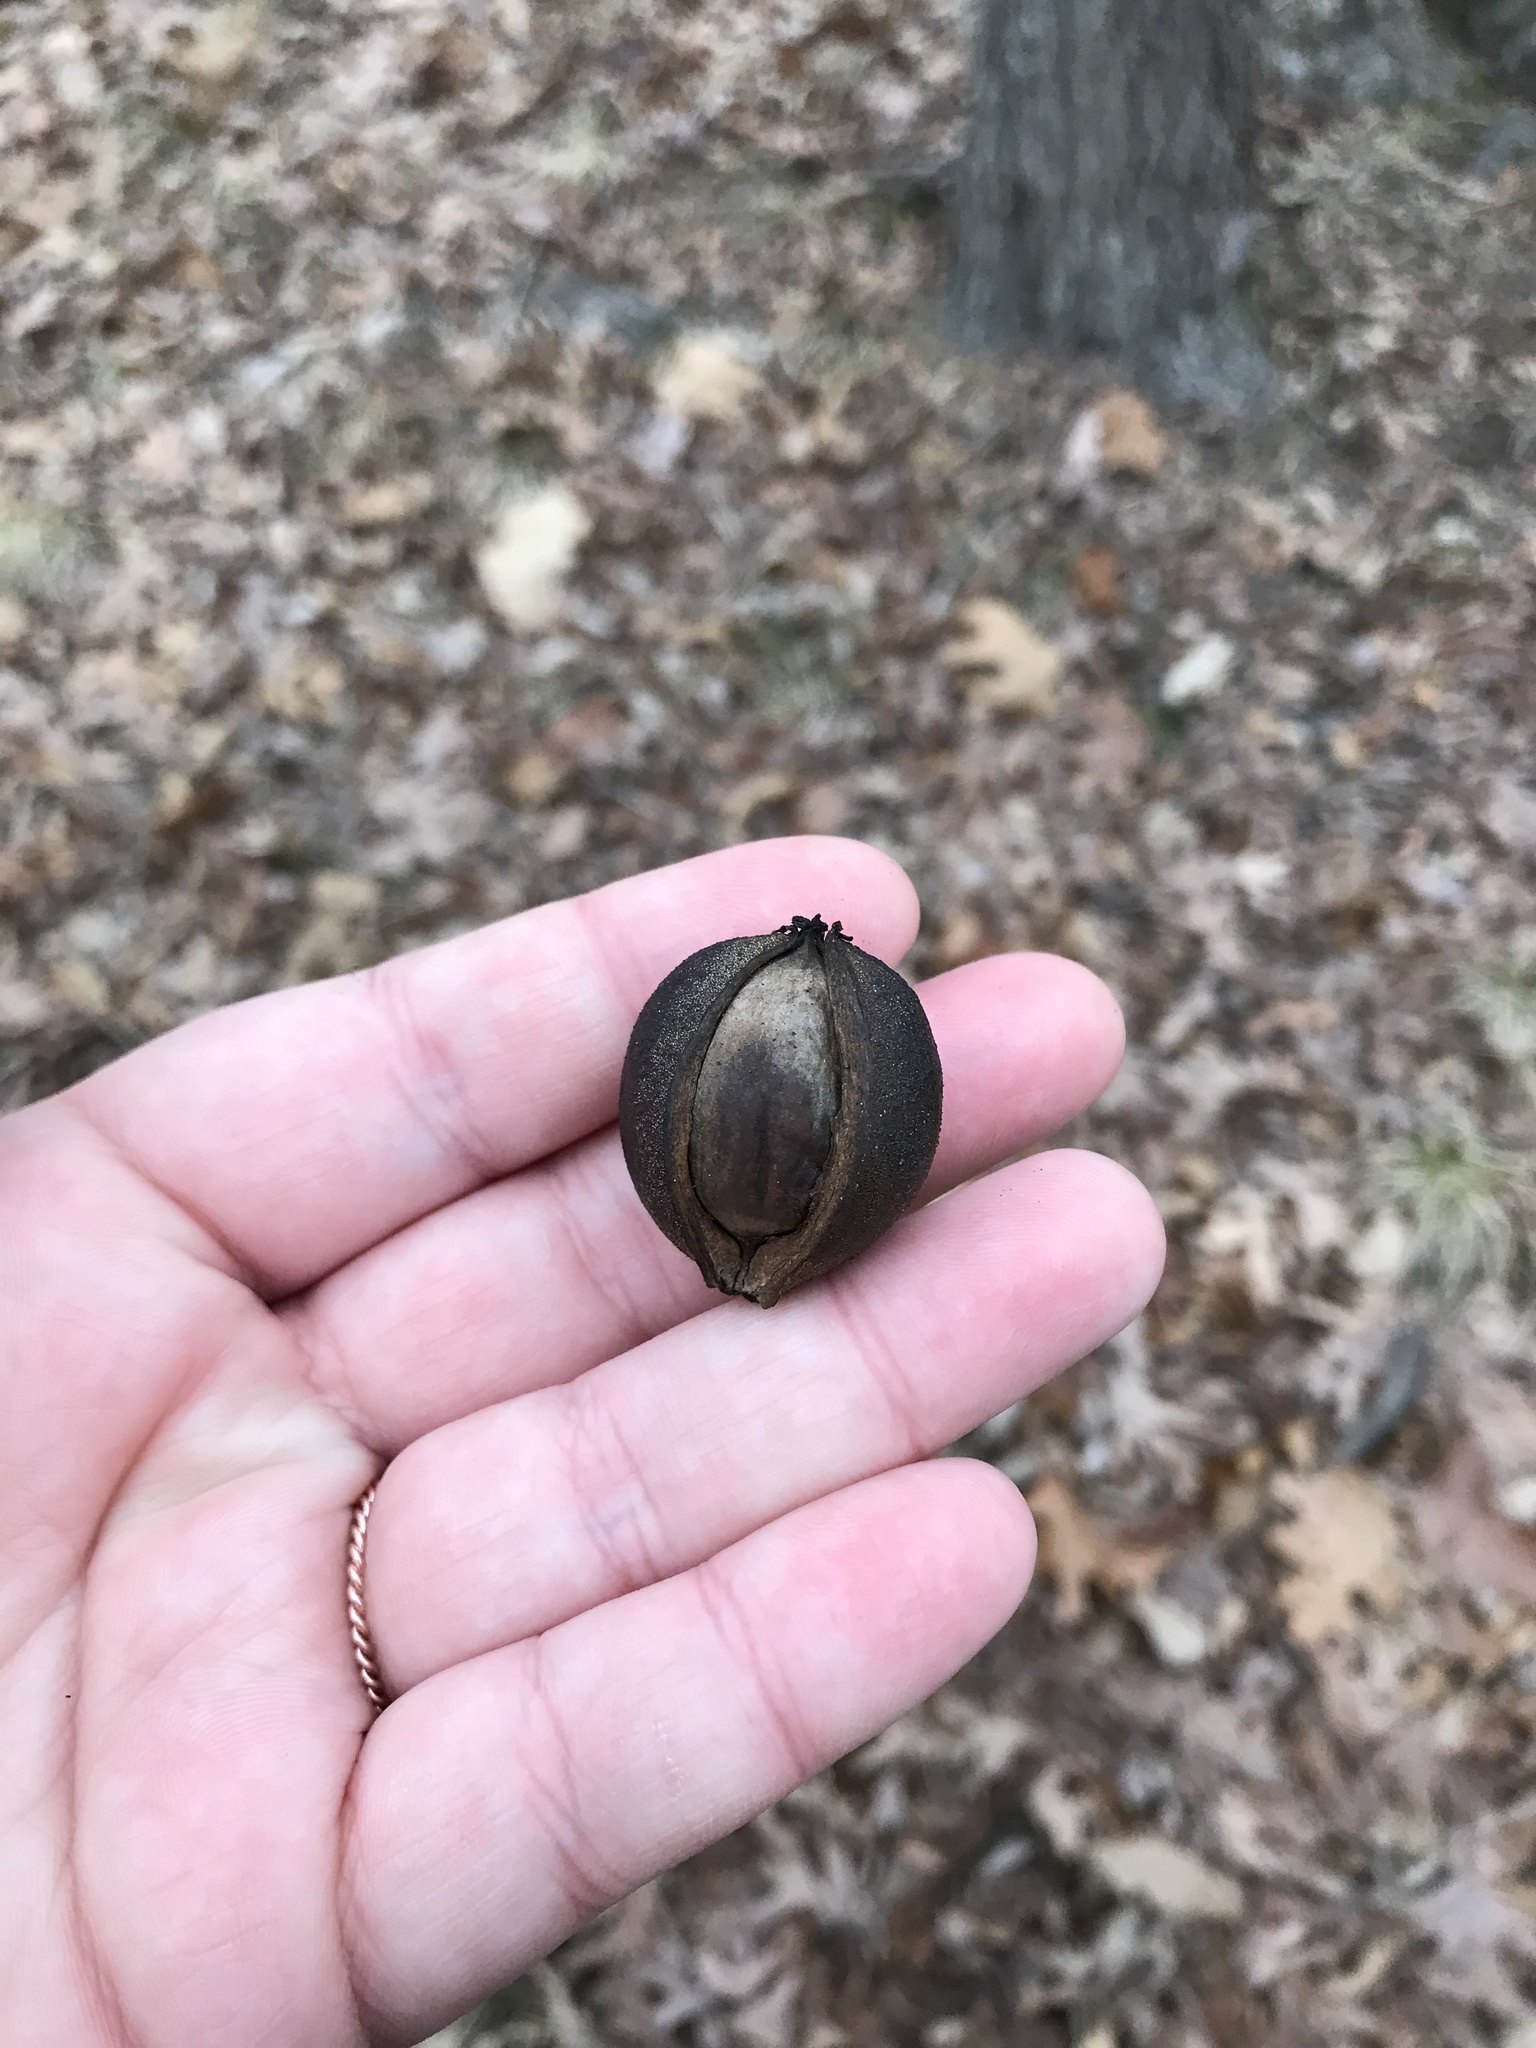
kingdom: Plantae
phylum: Tracheophyta
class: Magnoliopsida
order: Fagales
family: Juglandaceae
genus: Carya
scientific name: Carya glabra
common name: Pignut hickory
